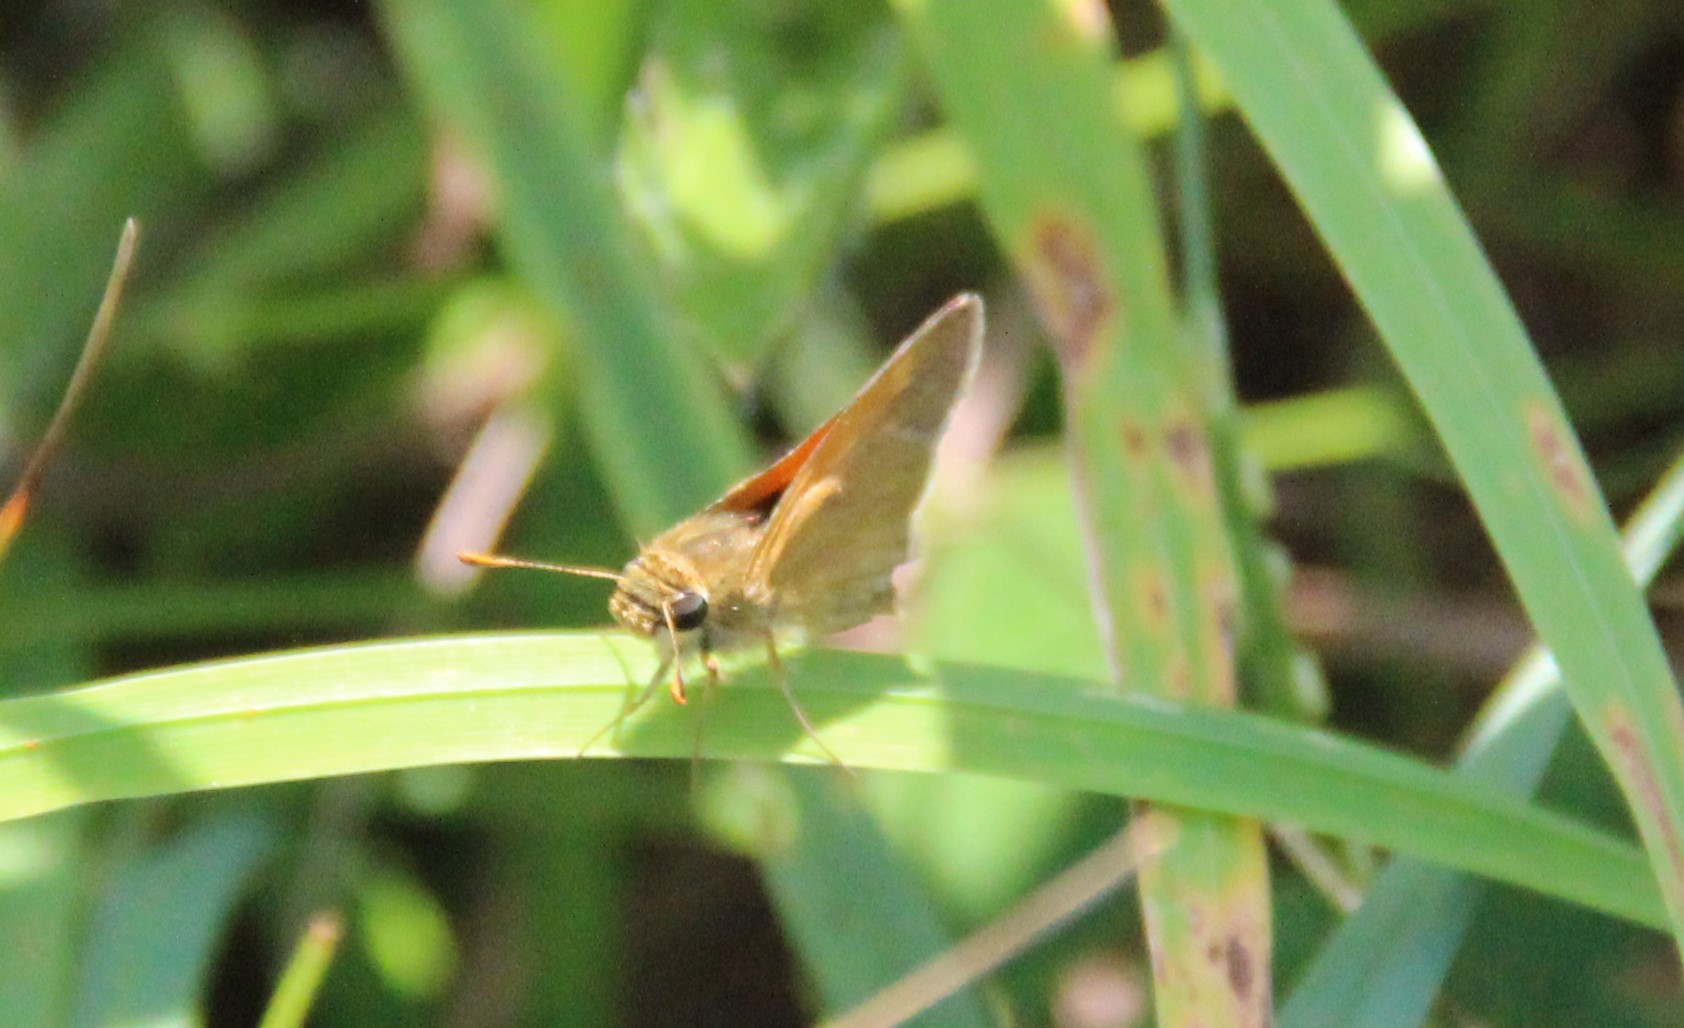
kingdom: Animalia
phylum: Arthropoda
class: Insecta
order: Lepidoptera
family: Hesperiidae
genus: Polites
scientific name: Polites themistocles
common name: Tawny-edged skipper
